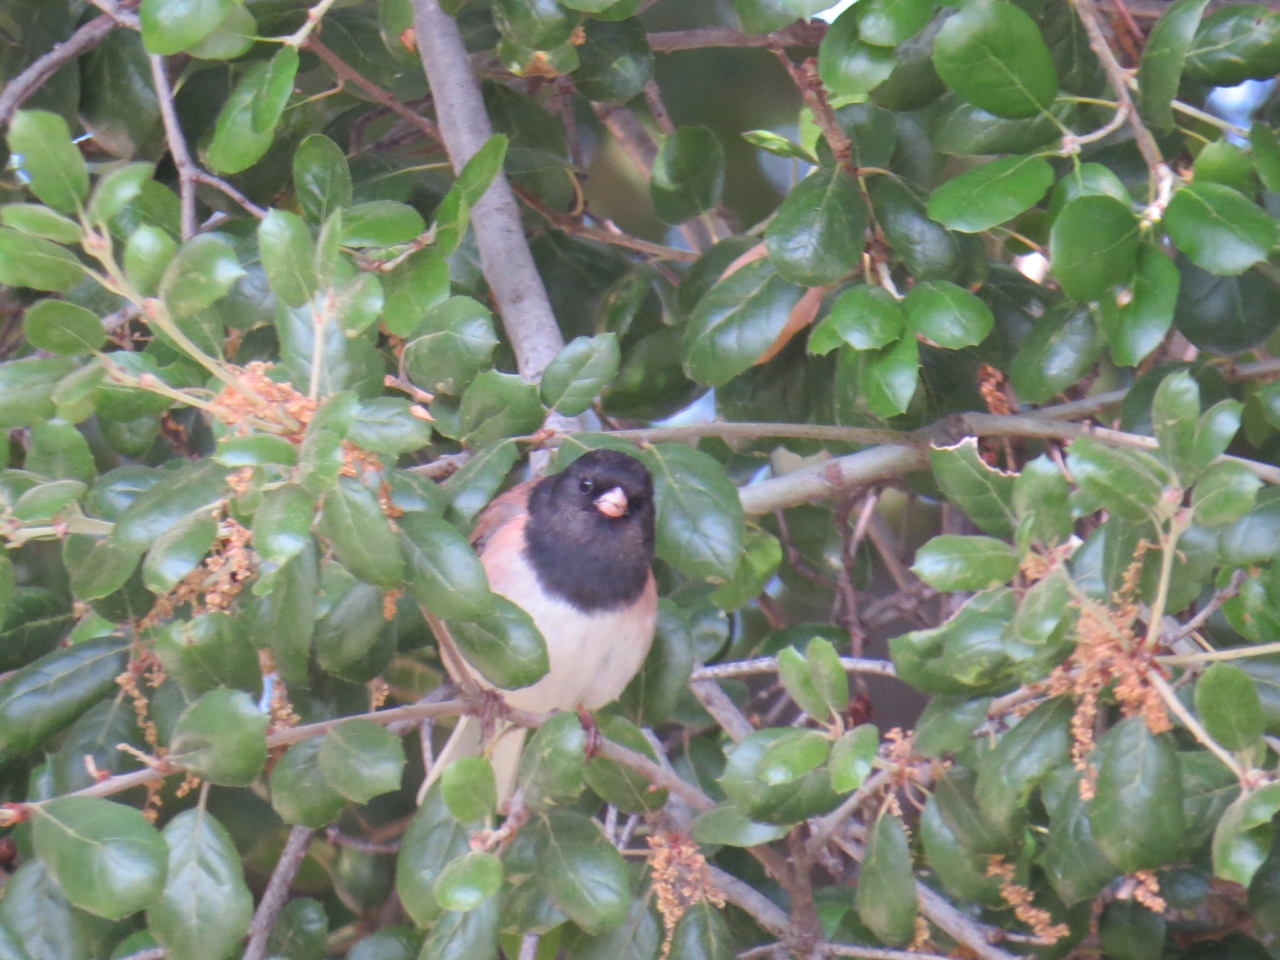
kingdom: Animalia
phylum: Chordata
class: Aves
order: Passeriformes
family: Passerellidae
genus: Junco
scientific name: Junco hyemalis
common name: Dark-eyed junco
